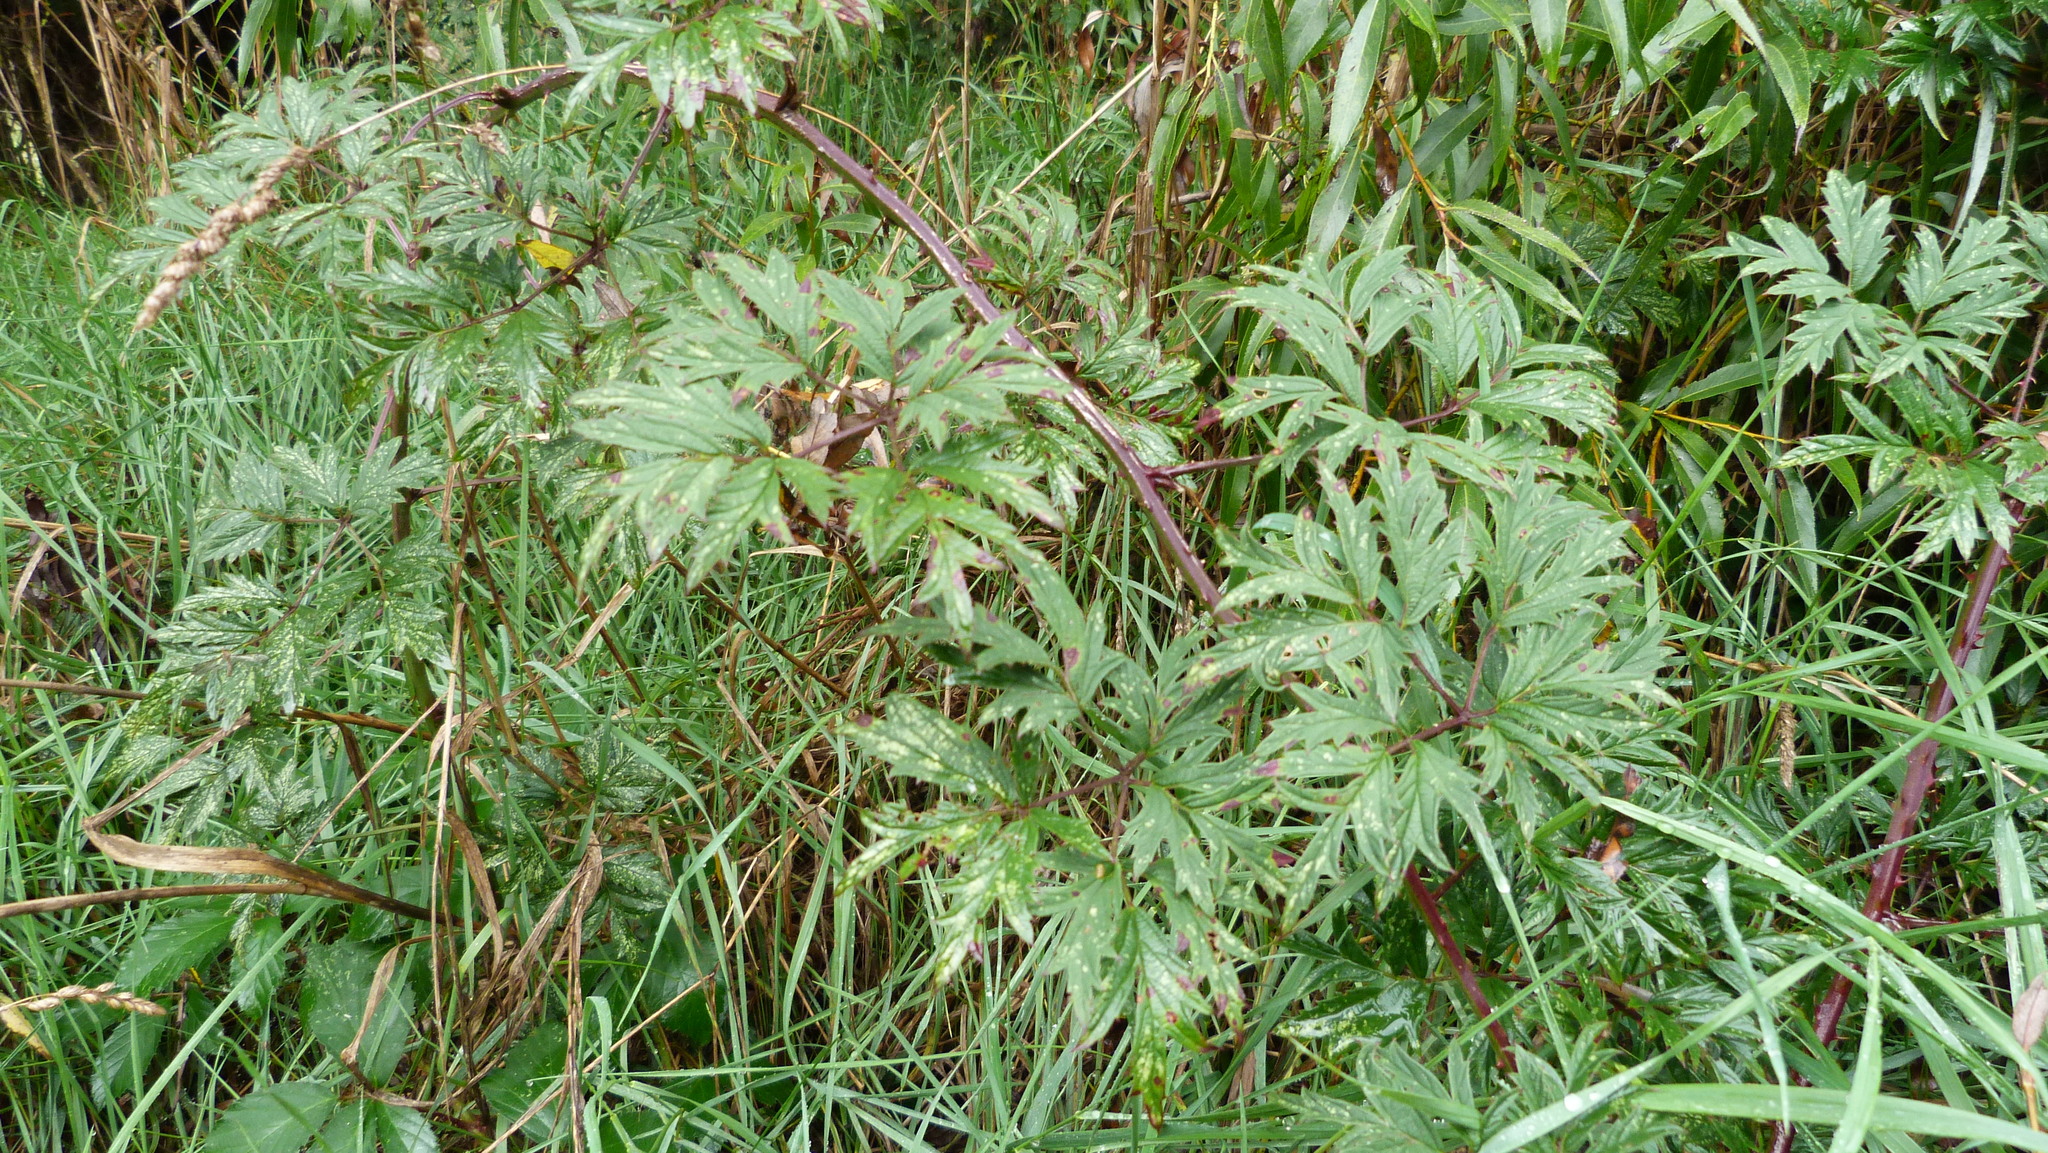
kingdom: Plantae
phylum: Tracheophyta
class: Magnoliopsida
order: Rosales
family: Rosaceae
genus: Rubus
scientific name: Rubus laciniatus
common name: Evergreen blackberry
